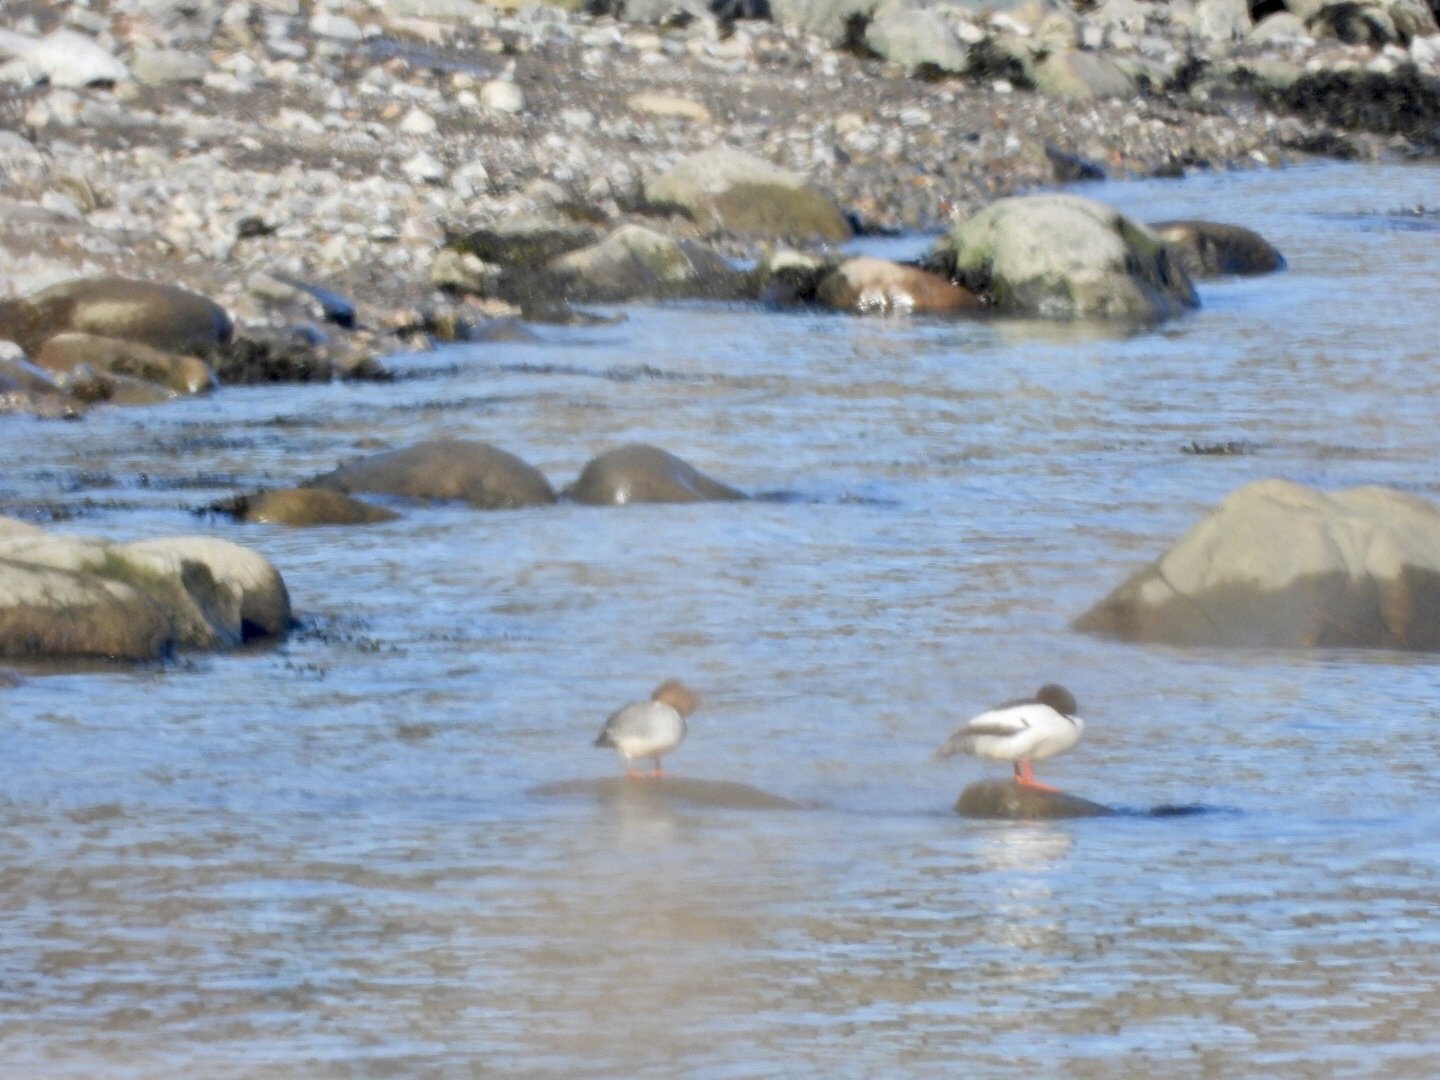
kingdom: Animalia
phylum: Chordata
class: Aves
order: Anseriformes
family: Anatidae
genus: Mergus
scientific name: Mergus merganser
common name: Common merganser
